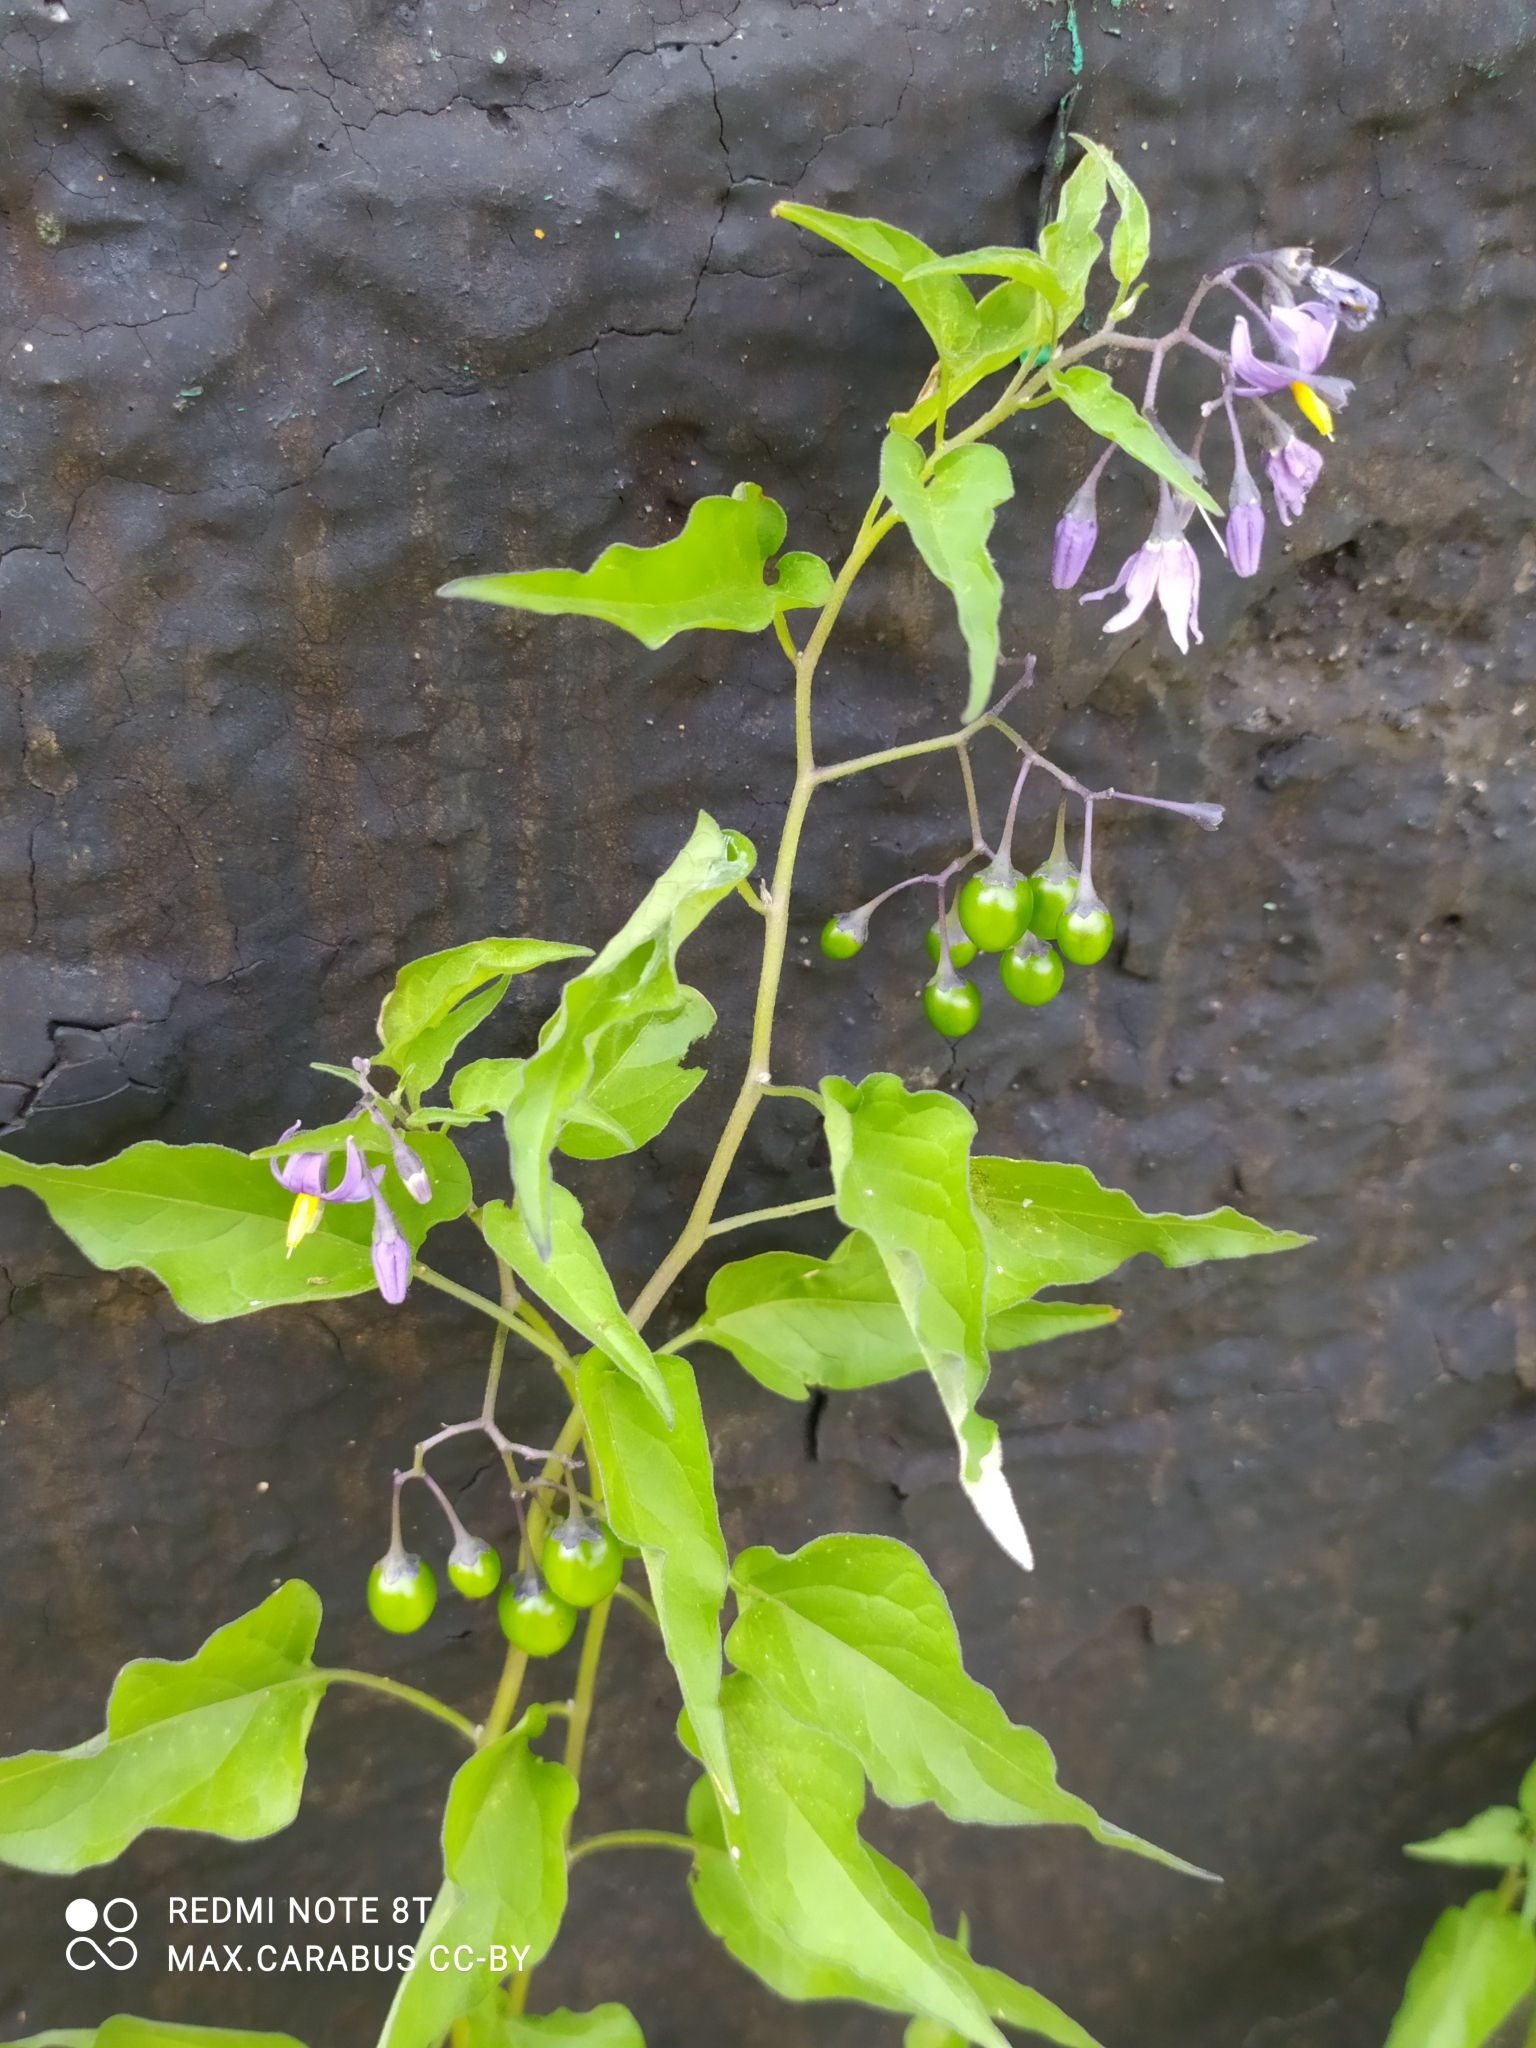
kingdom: Plantae
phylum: Tracheophyta
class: Magnoliopsida
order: Solanales
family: Solanaceae
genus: Solanum
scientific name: Solanum dulcamara
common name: Climbing nightshade
